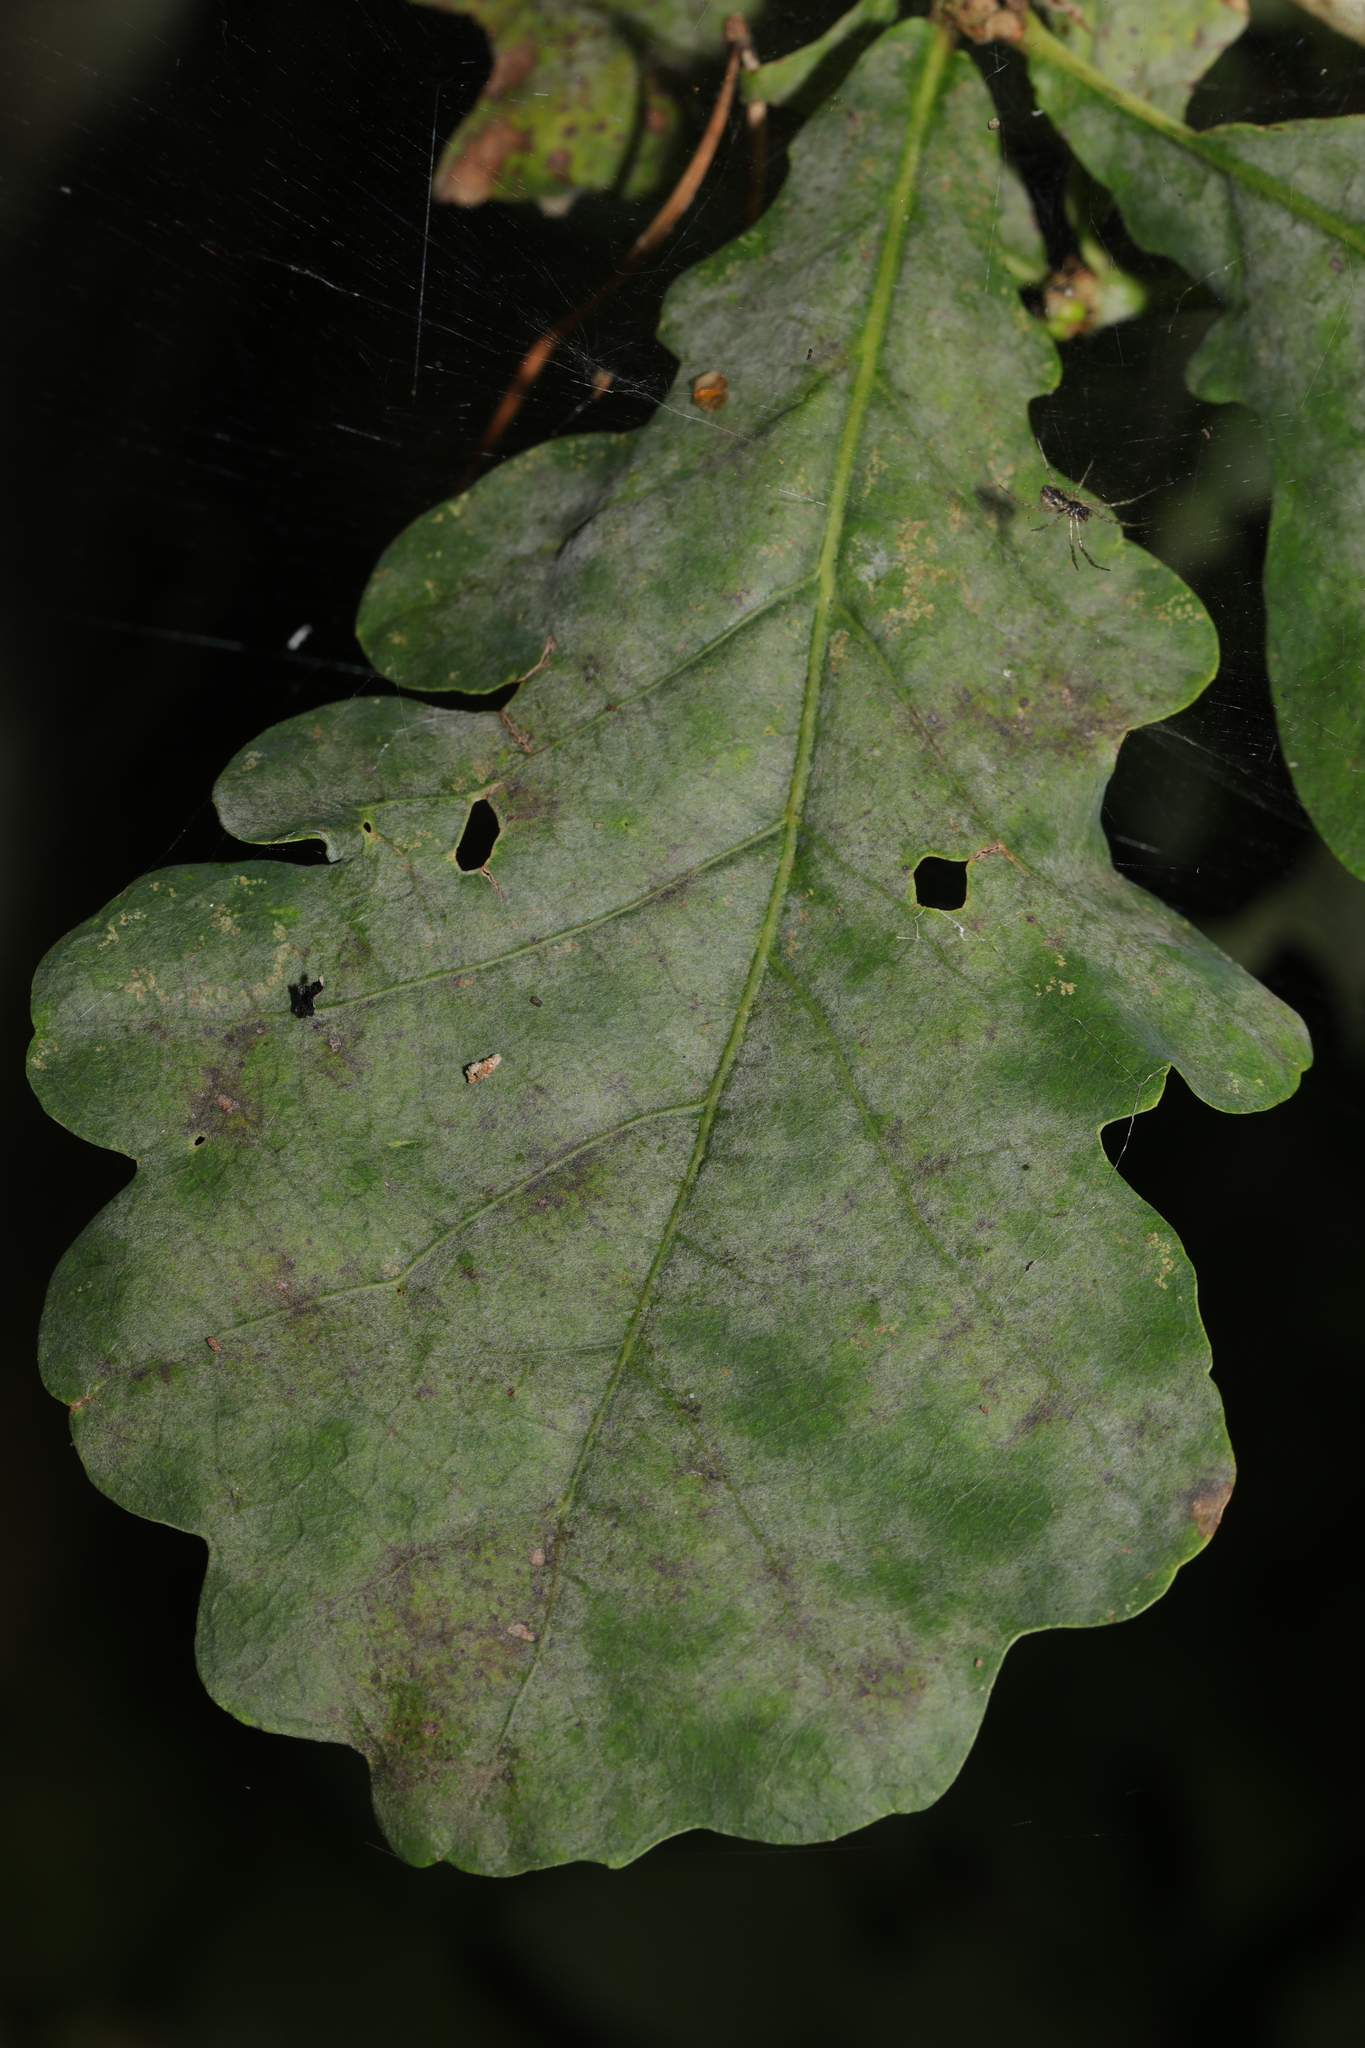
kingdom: Fungi
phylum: Ascomycota
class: Leotiomycetes
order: Helotiales
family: Erysiphaceae
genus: Erysiphe
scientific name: Erysiphe alphitoides
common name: Oak mildew
